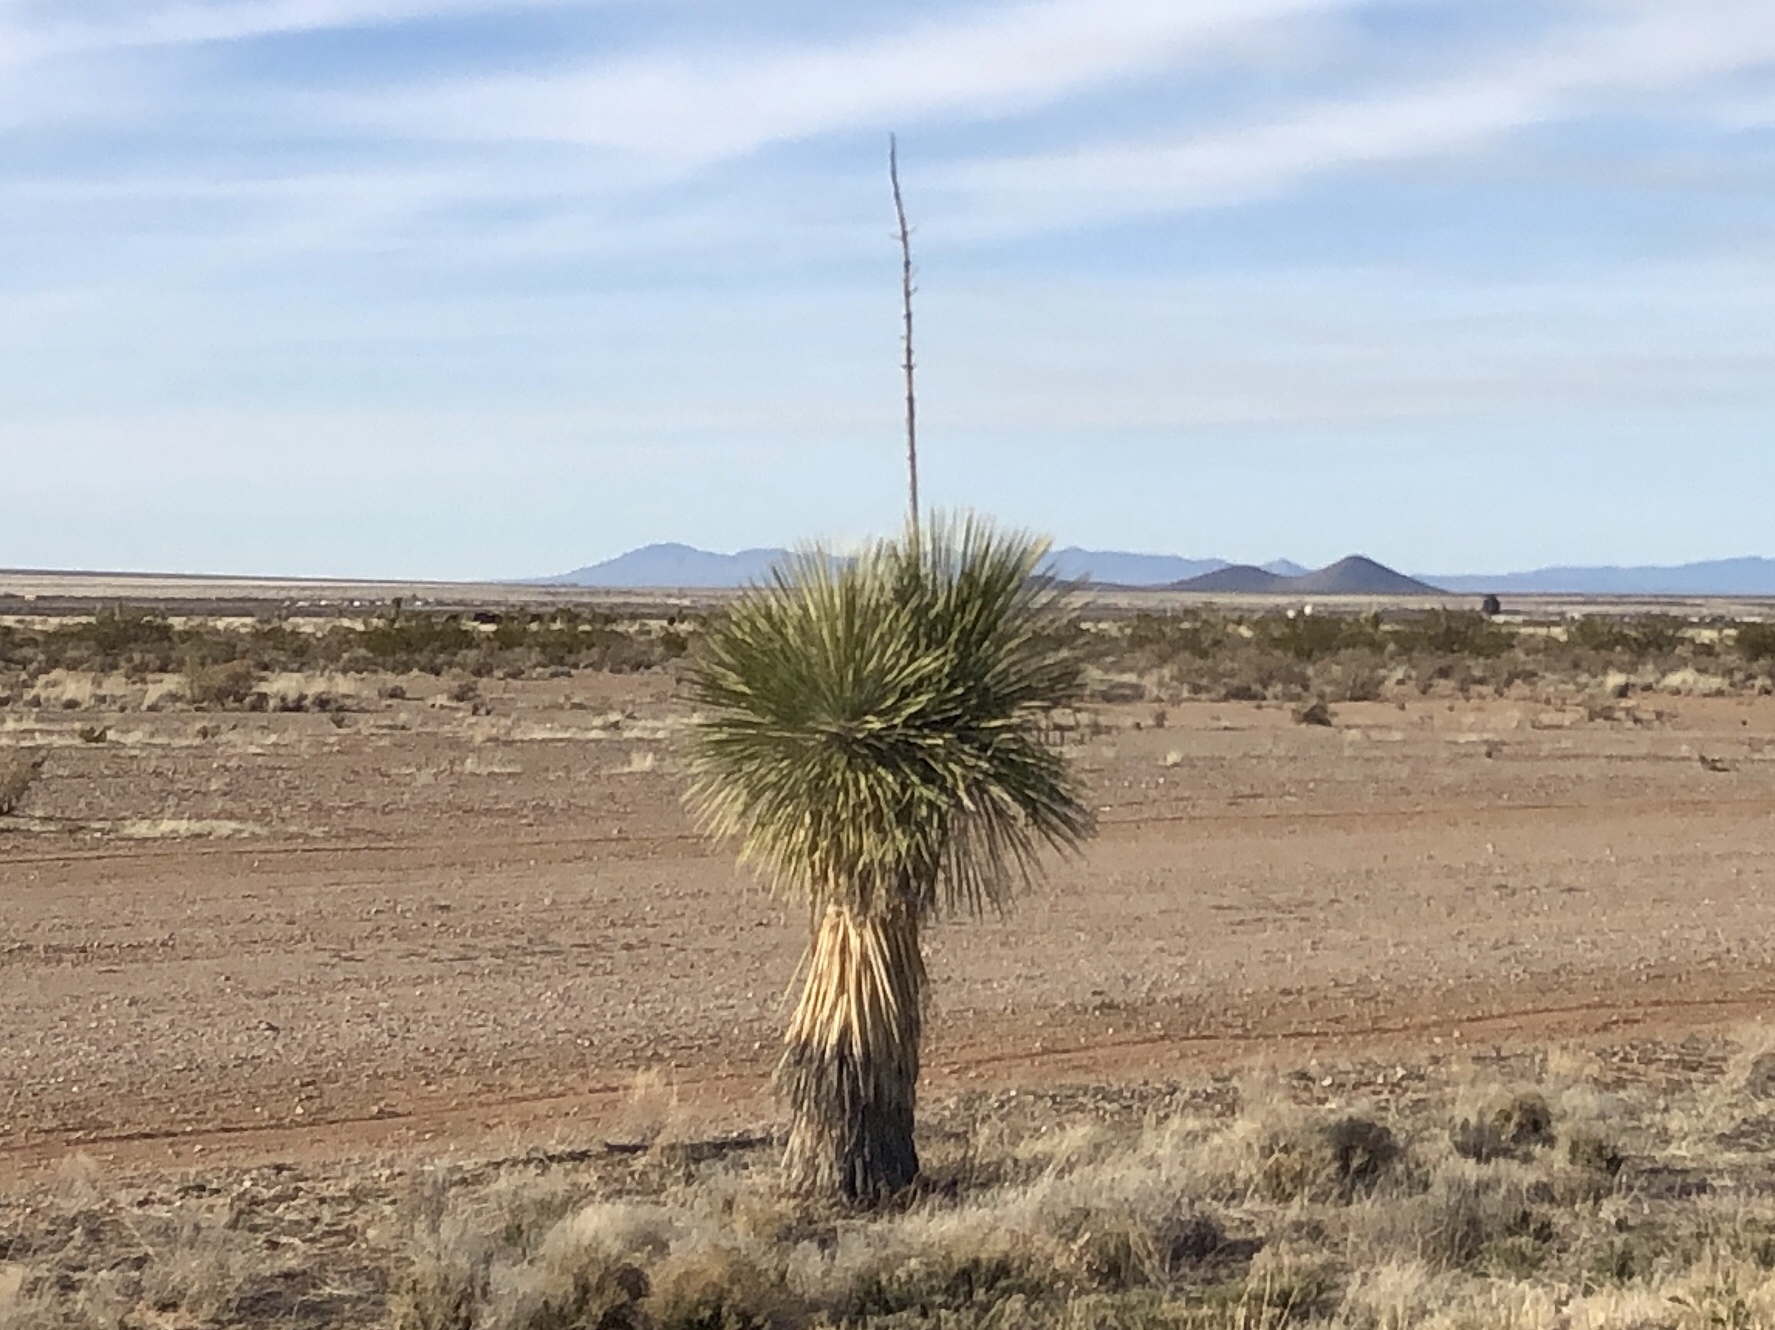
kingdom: Plantae
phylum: Tracheophyta
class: Liliopsida
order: Asparagales
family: Asparagaceae
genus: Yucca
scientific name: Yucca elata
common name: Palmella
